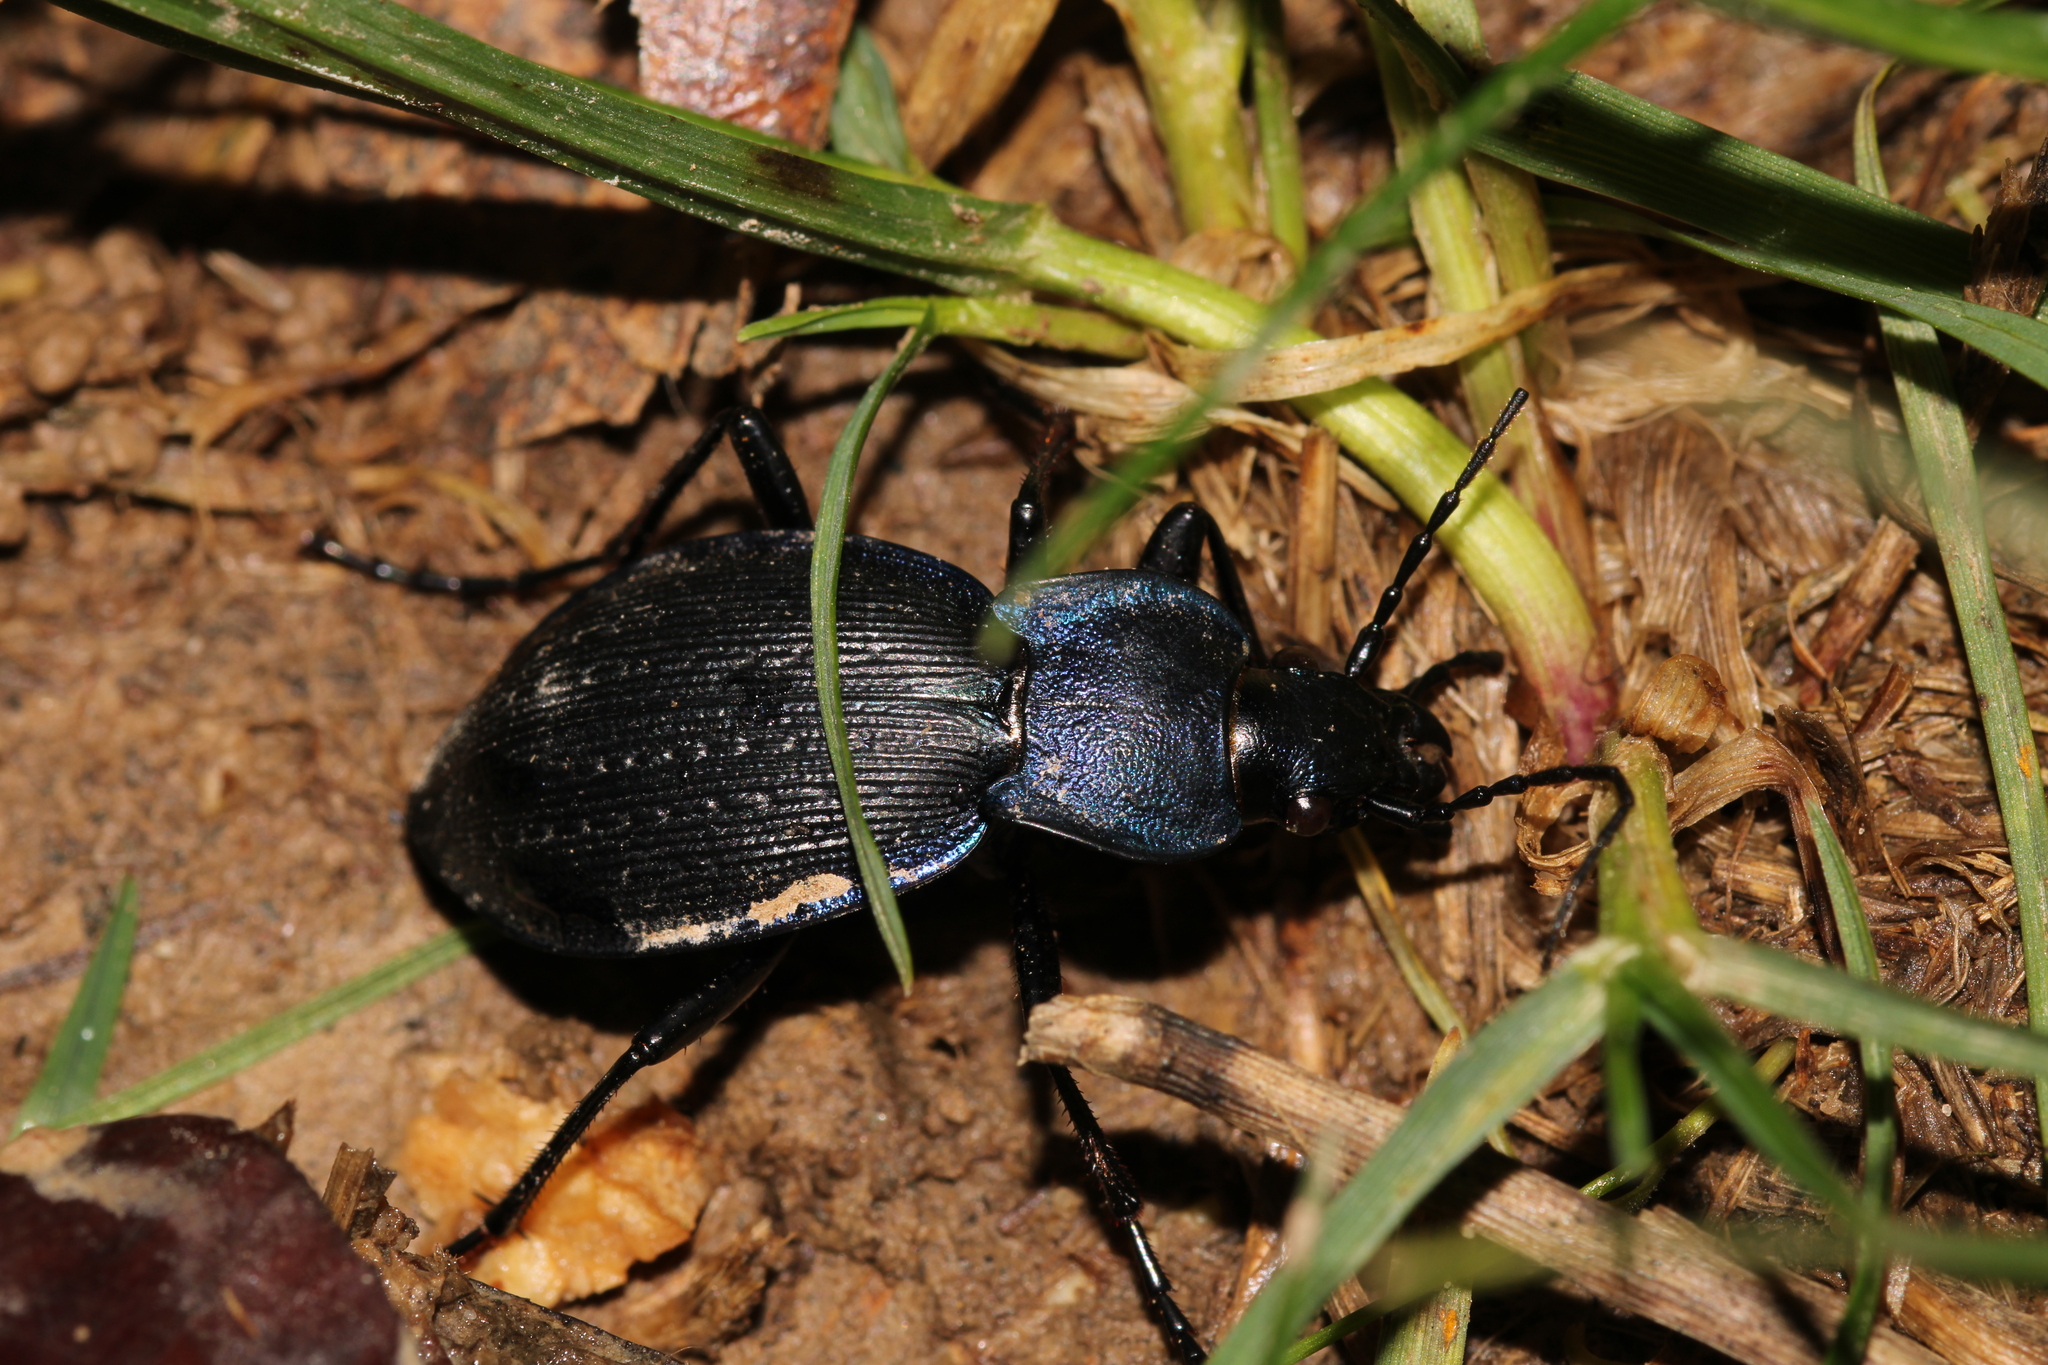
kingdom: Animalia
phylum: Arthropoda
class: Insecta
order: Coleoptera
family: Carabidae
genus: Carabus
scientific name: Carabus problematicus
